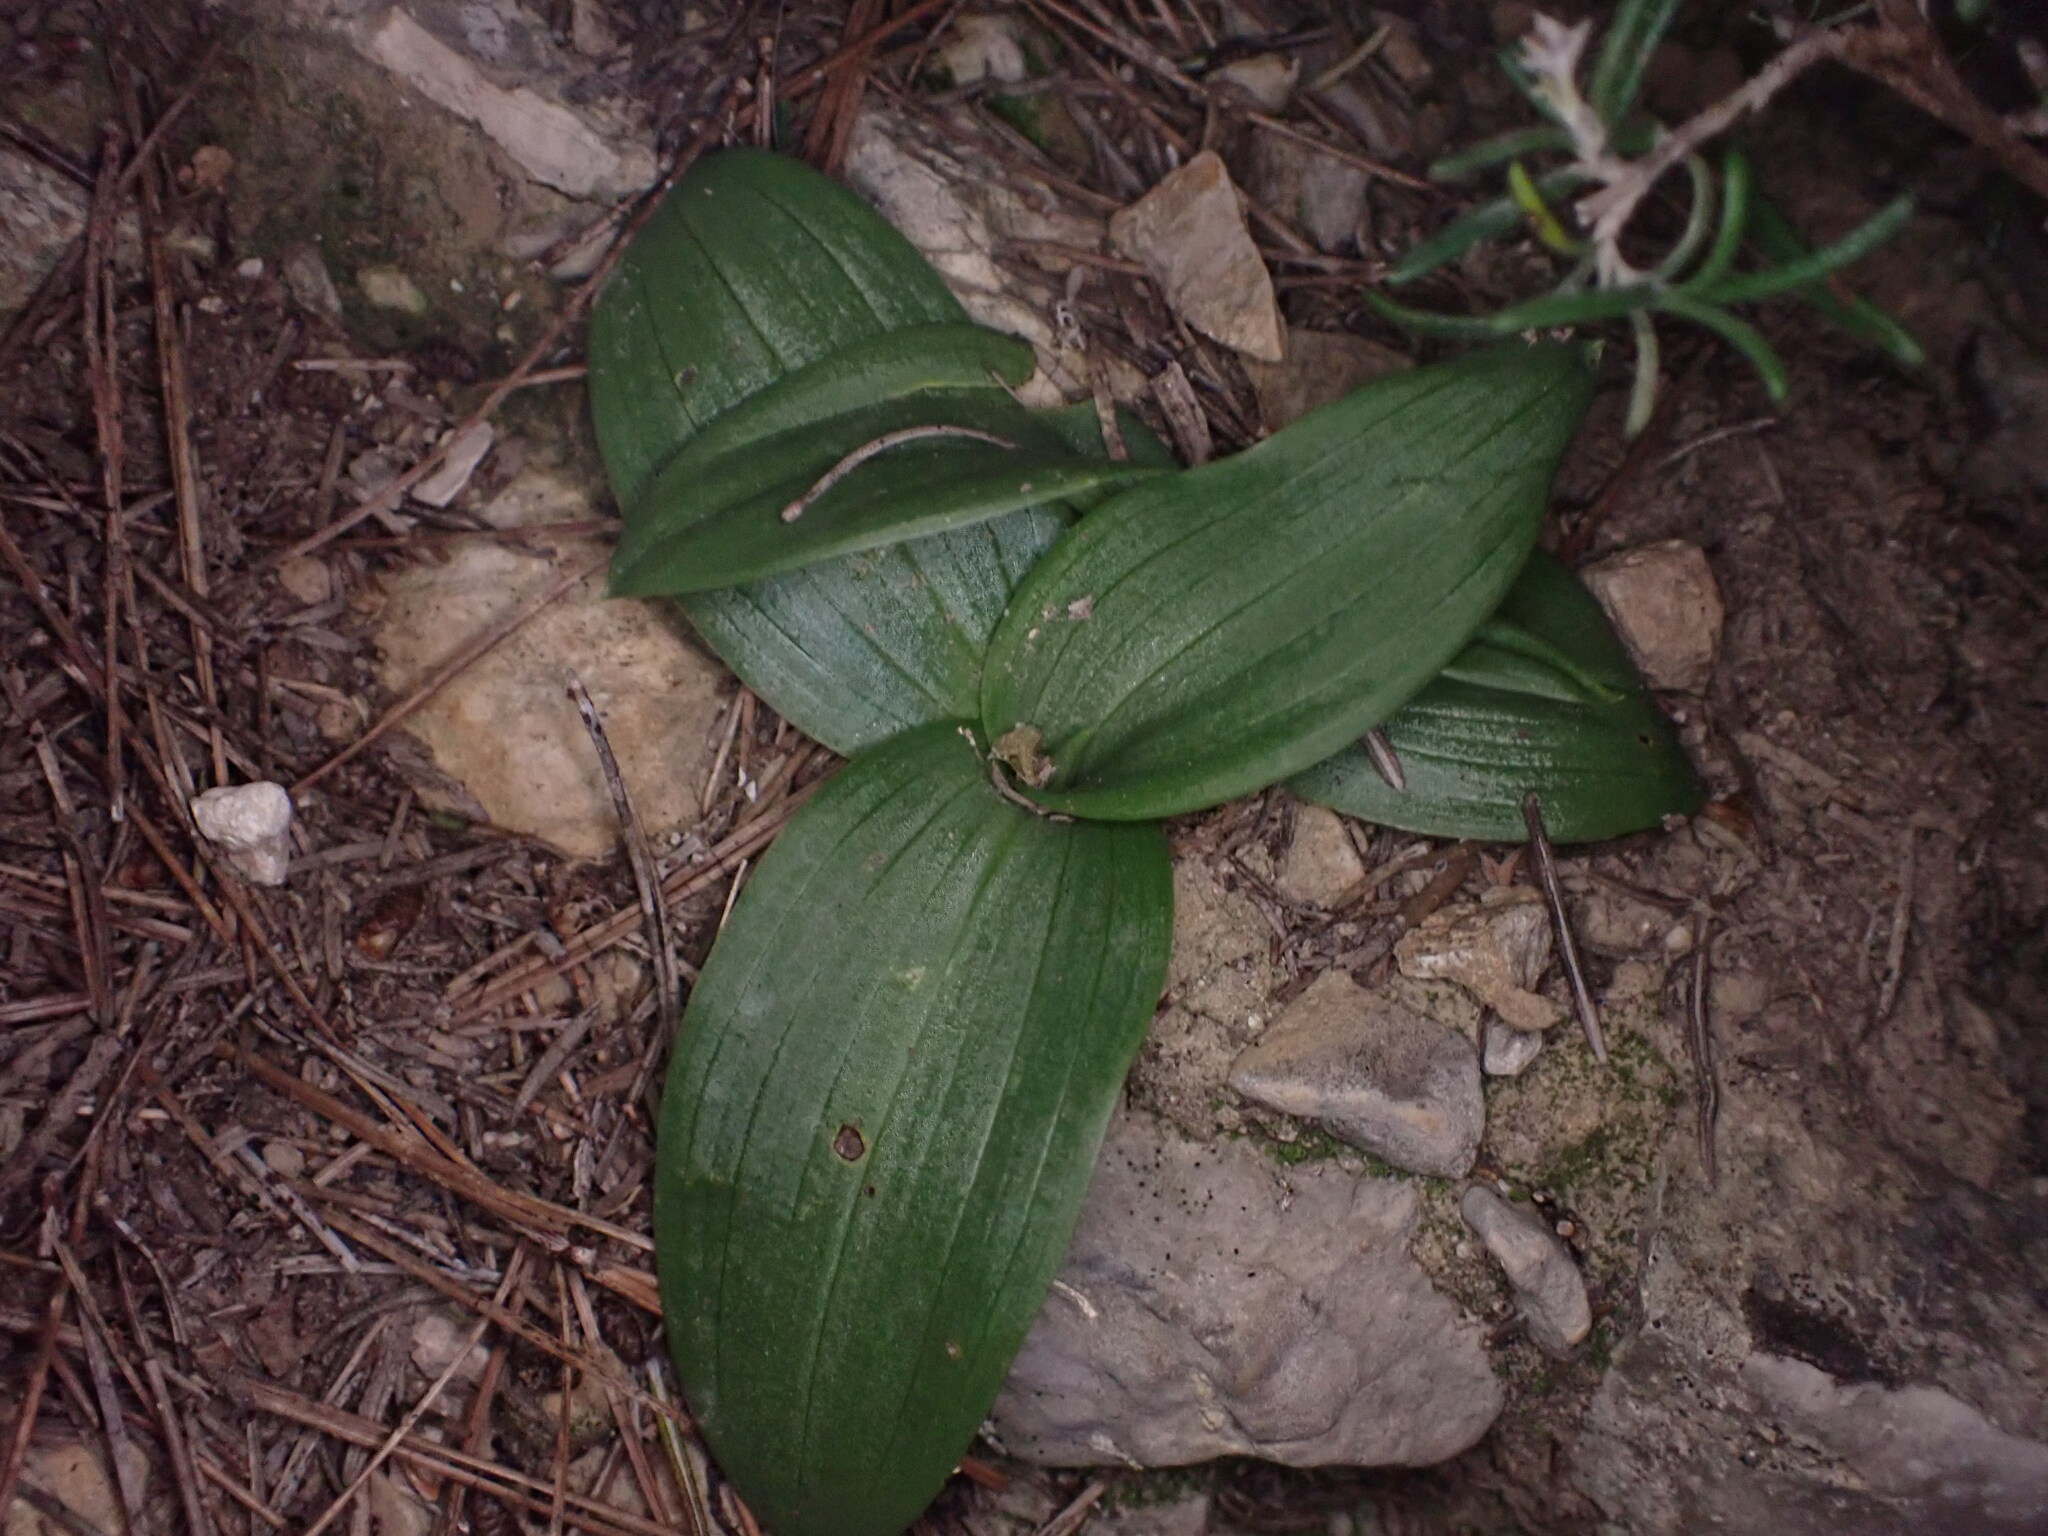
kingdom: Plantae
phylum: Tracheophyta
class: Liliopsida
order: Asparagales
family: Orchidaceae
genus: Ophrys
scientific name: Ophrys fusca
